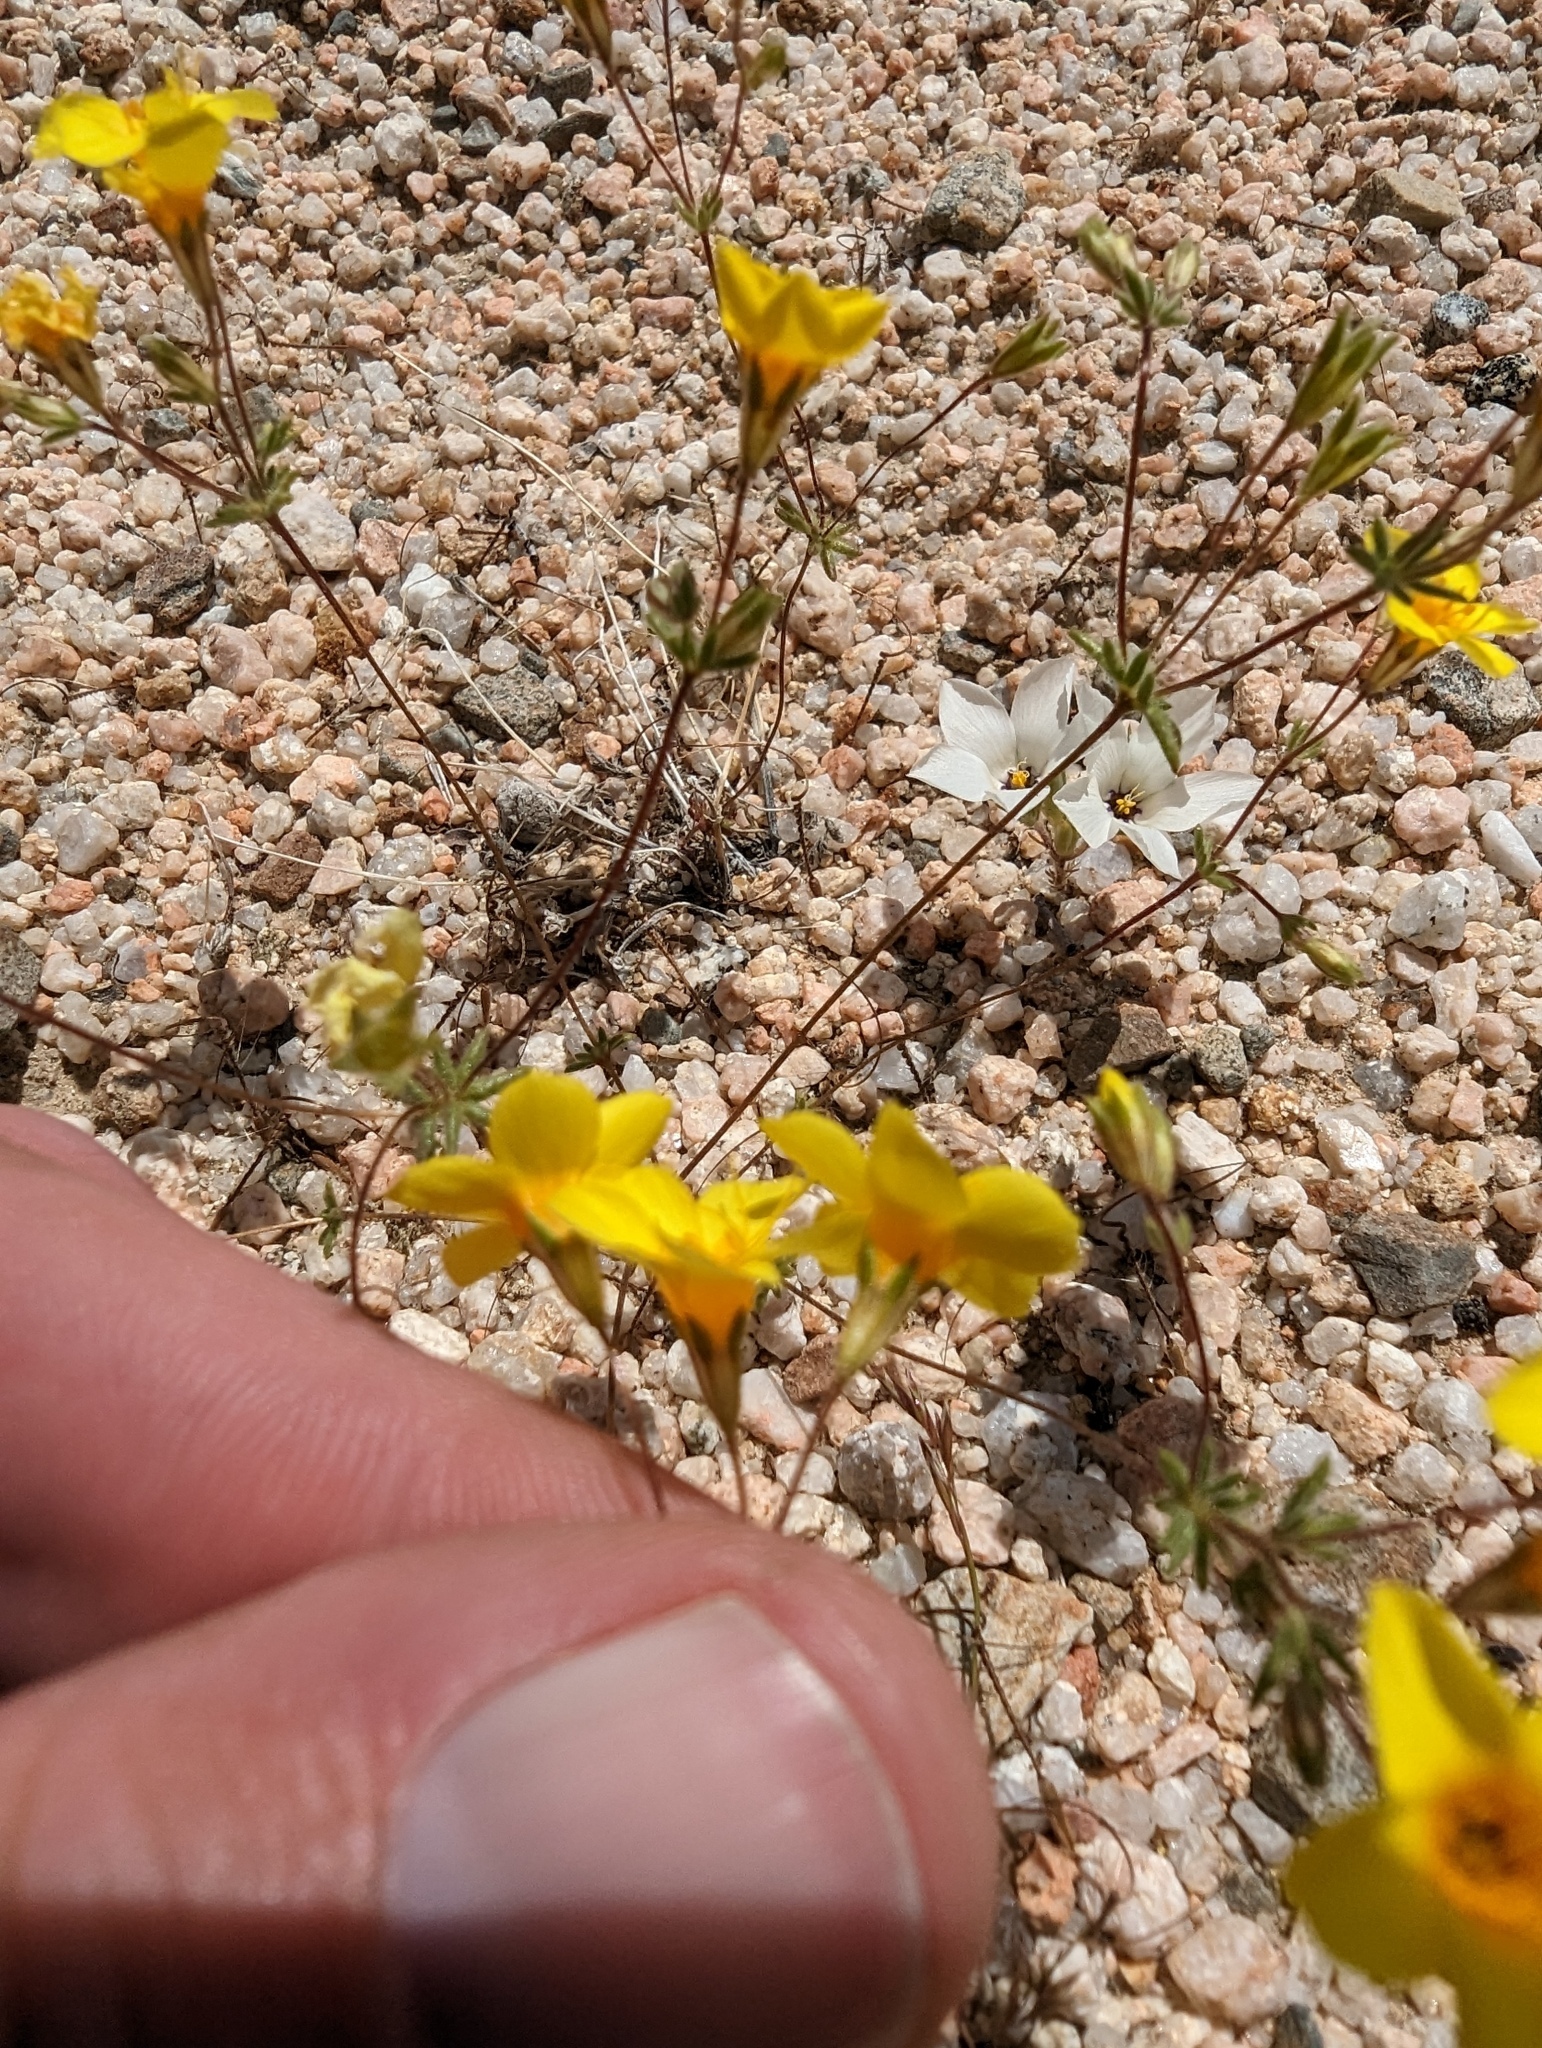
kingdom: Plantae
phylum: Tracheophyta
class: Magnoliopsida
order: Ericales
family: Polemoniaceae
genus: Leptosiphon
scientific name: Leptosiphon chrysanthus
